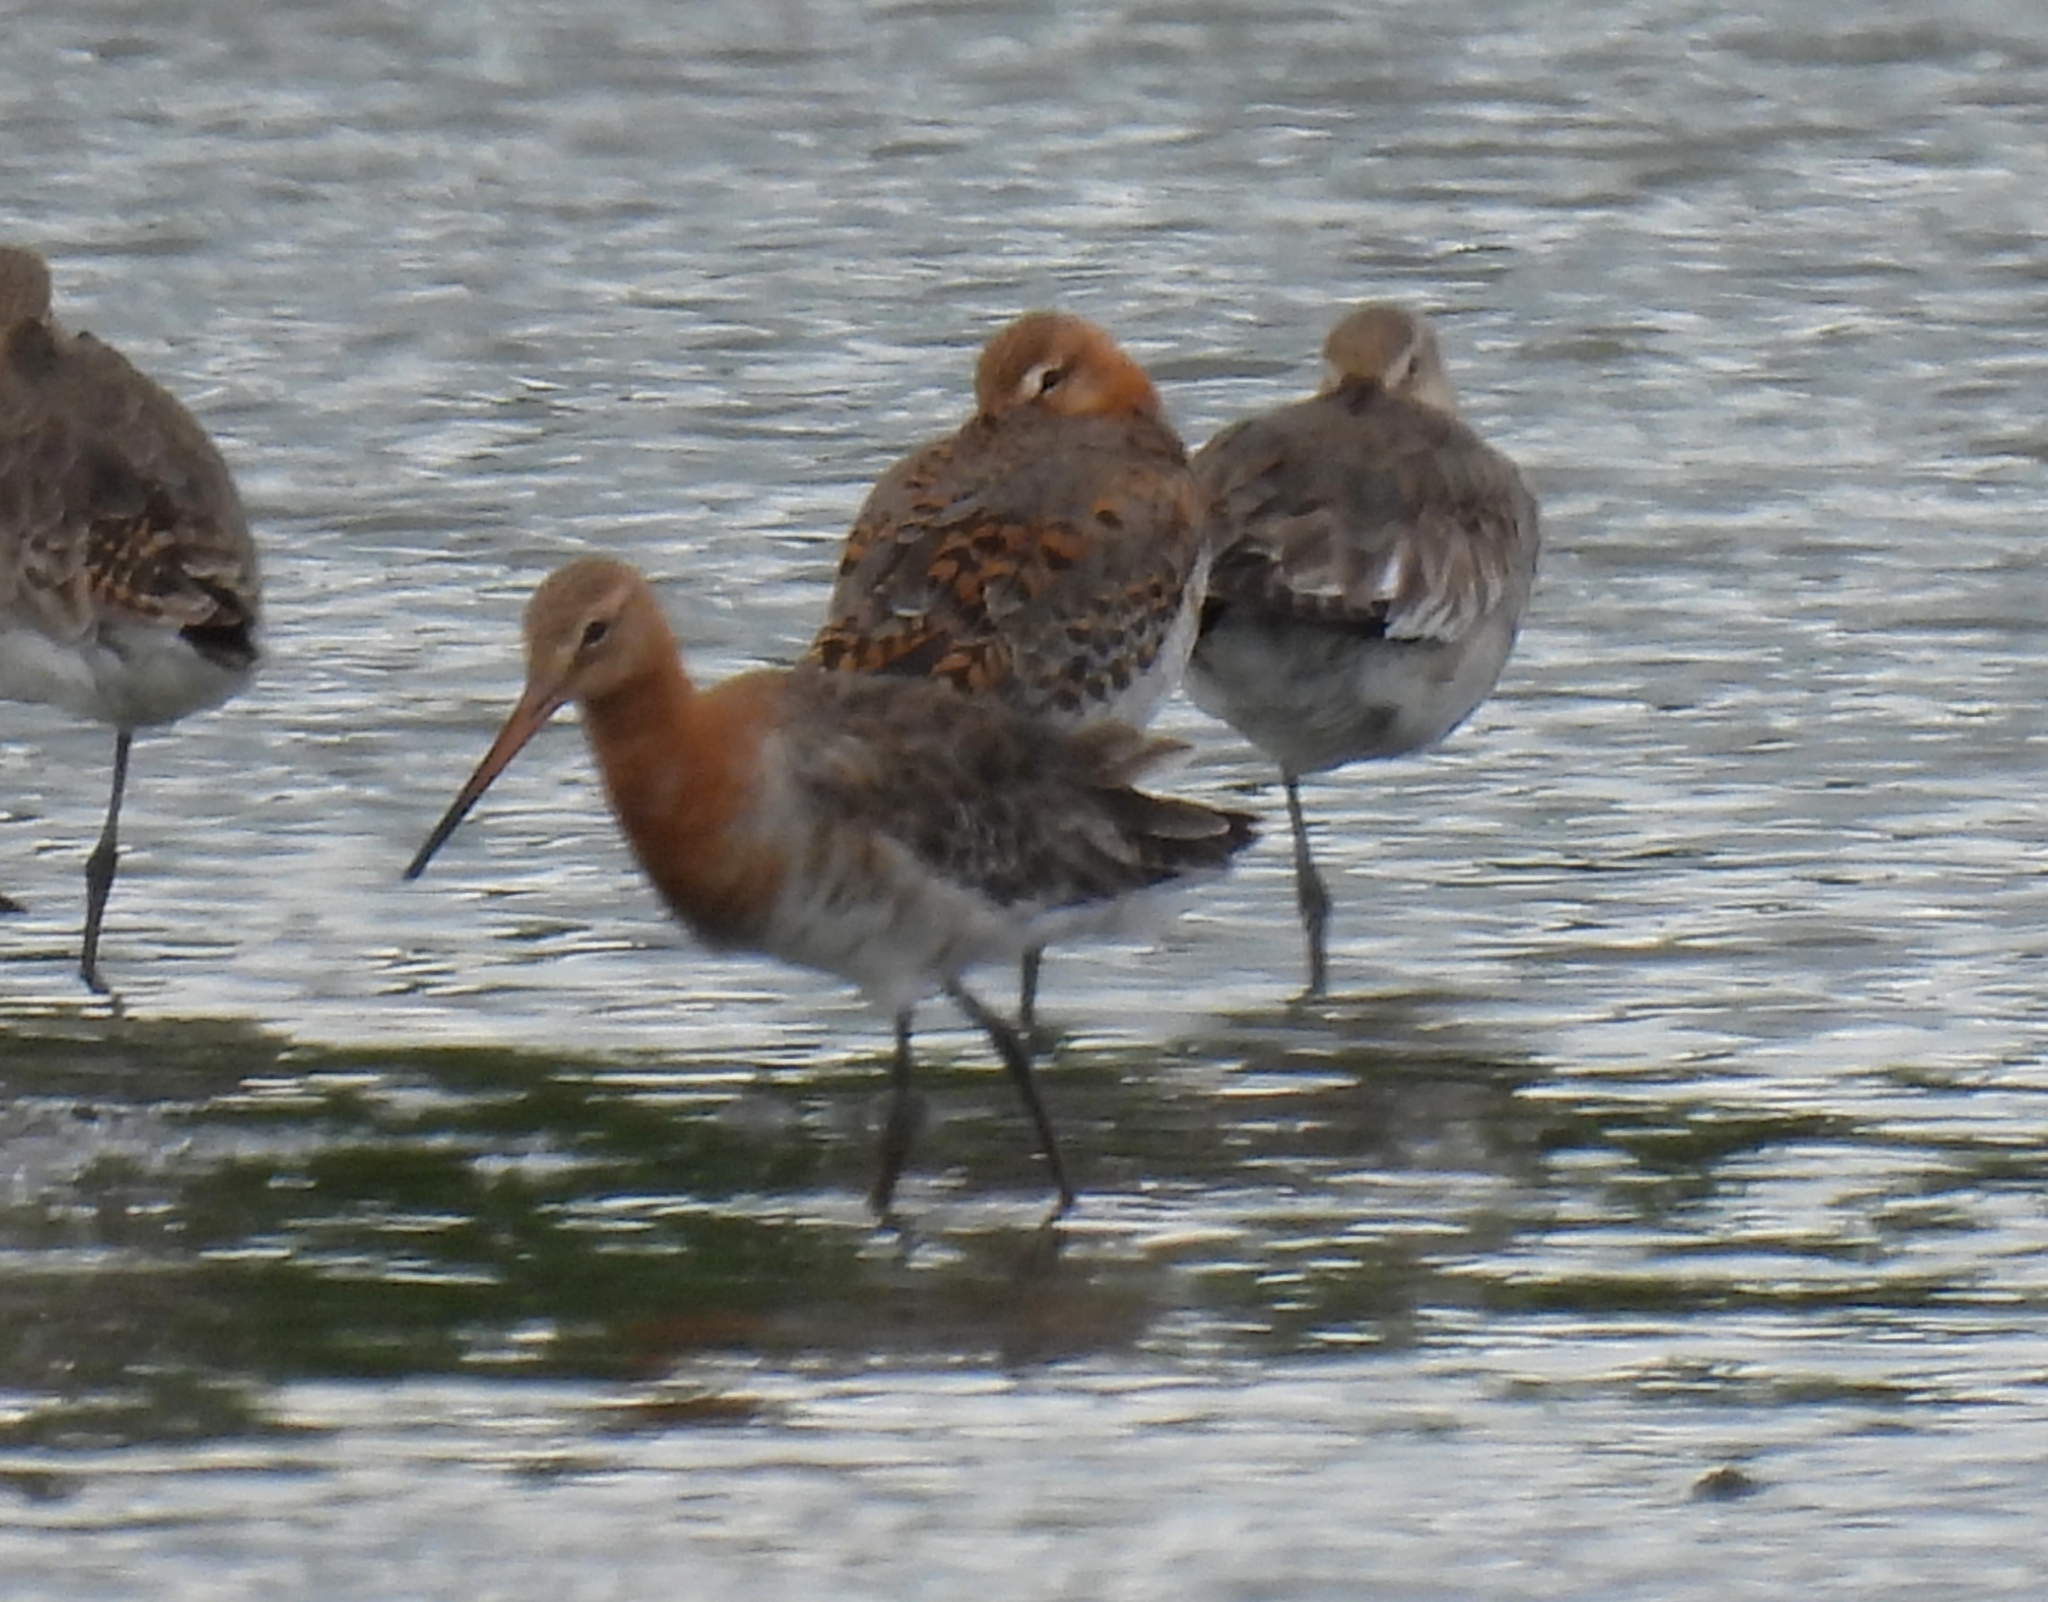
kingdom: Animalia
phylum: Chordata
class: Aves
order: Charadriiformes
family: Scolopacidae
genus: Limosa
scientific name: Limosa limosa
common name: Black-tailed godwit
